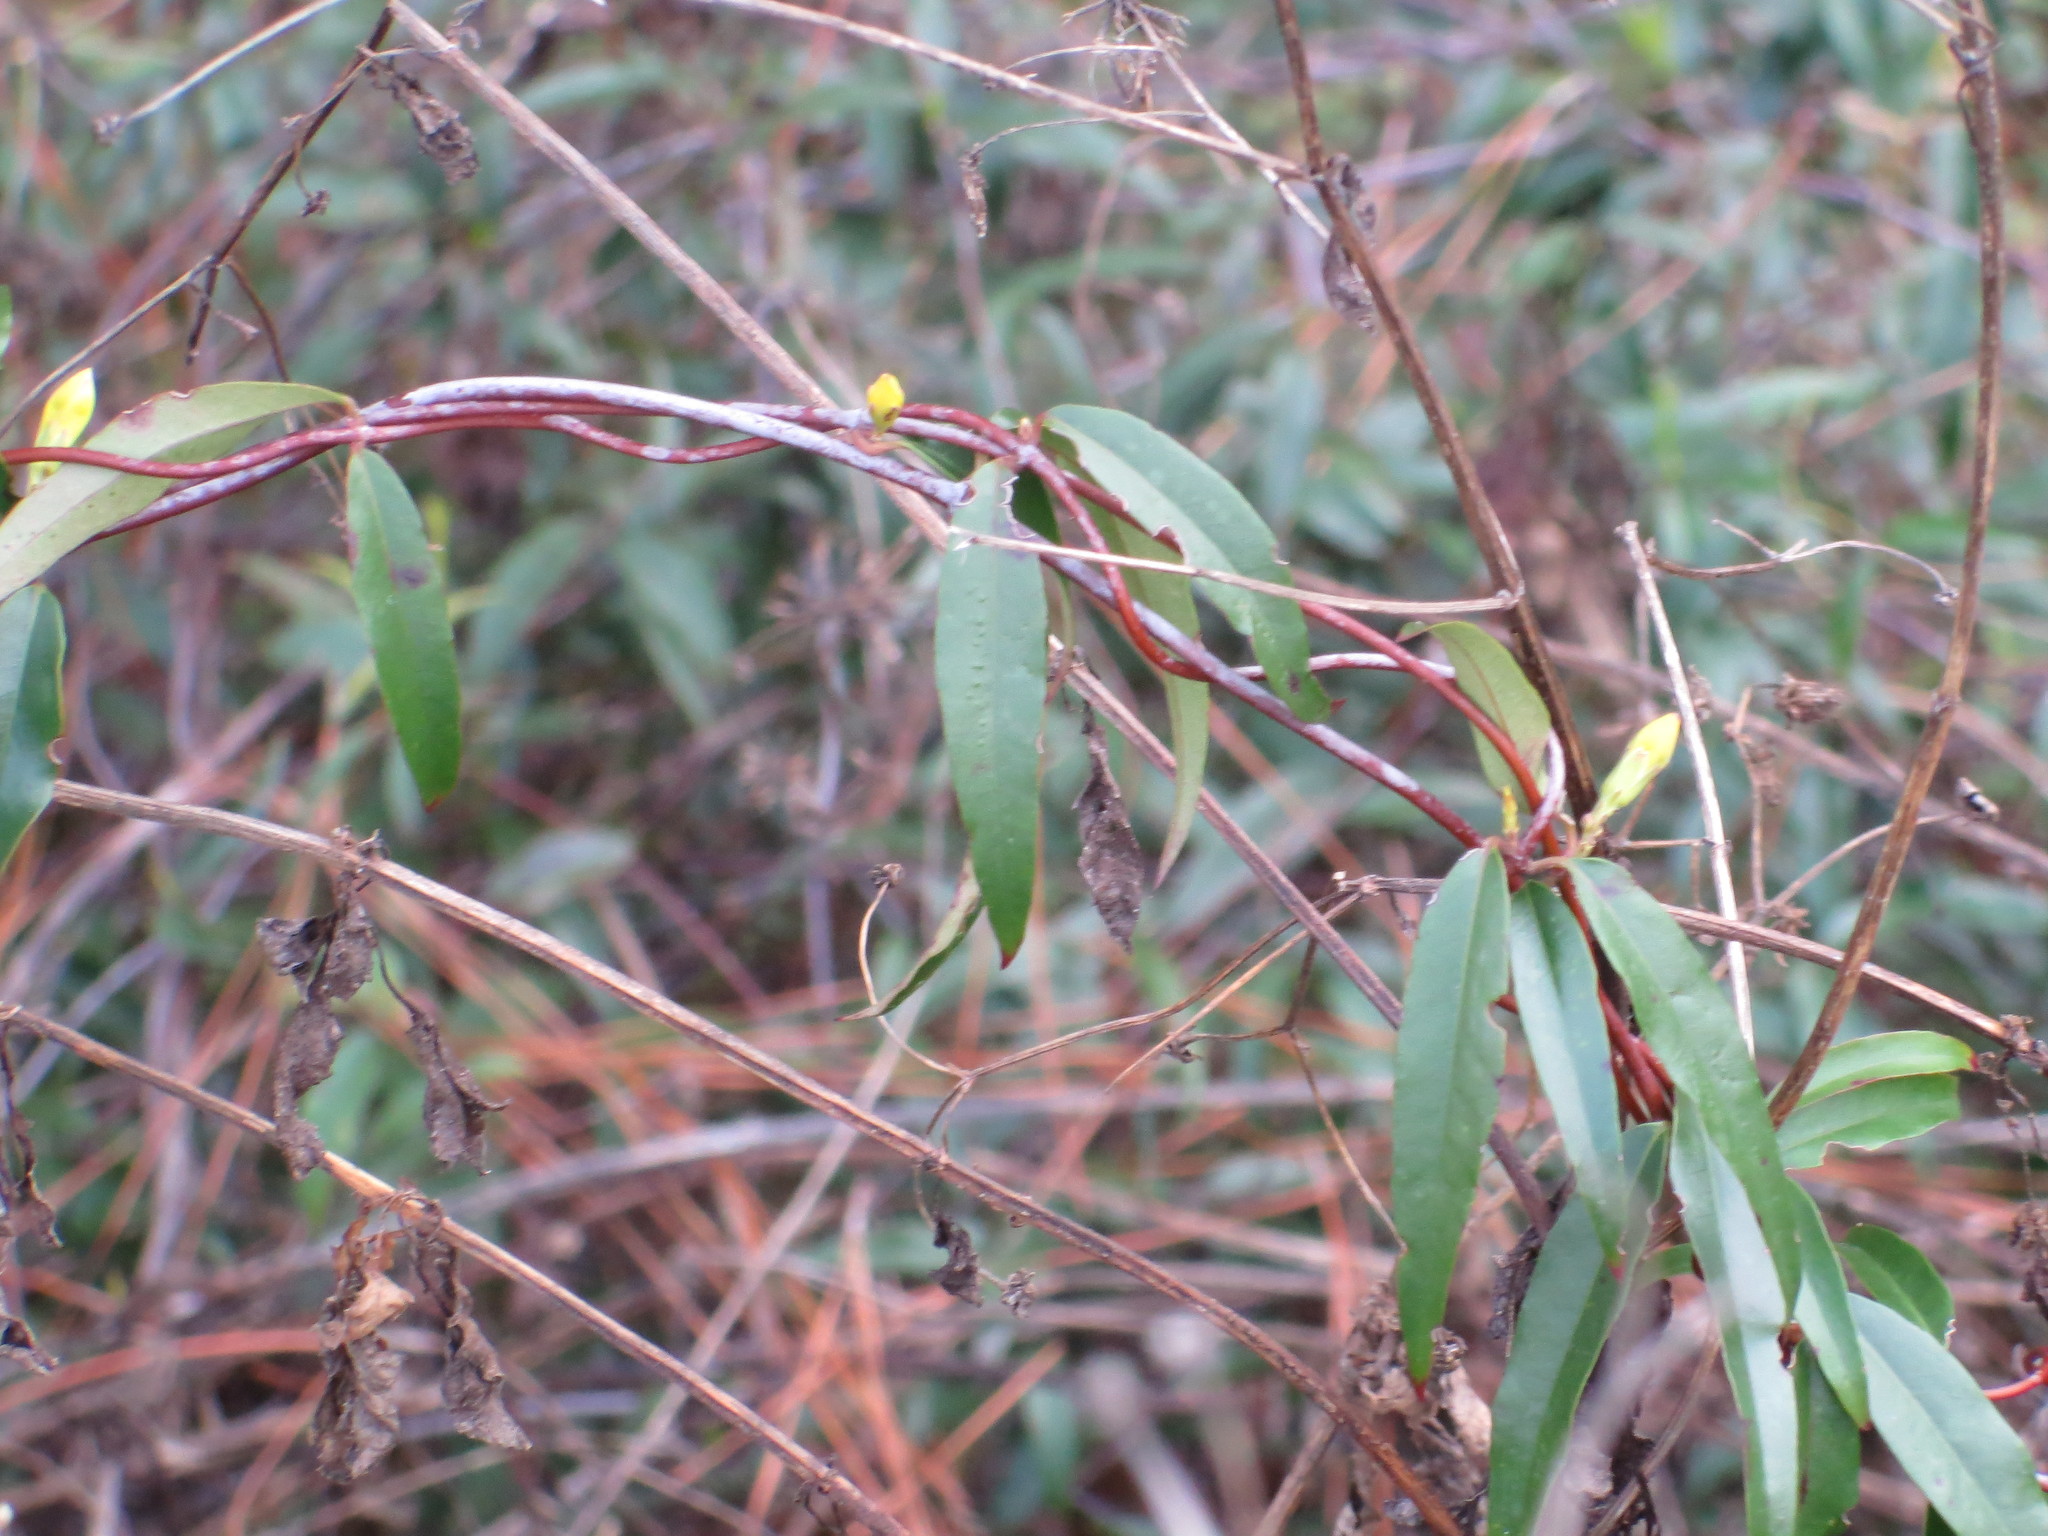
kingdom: Plantae
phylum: Tracheophyta
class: Magnoliopsida
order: Gentianales
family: Gelsemiaceae
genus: Gelsemium
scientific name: Gelsemium sempervirens
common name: Carolina-jasmine
